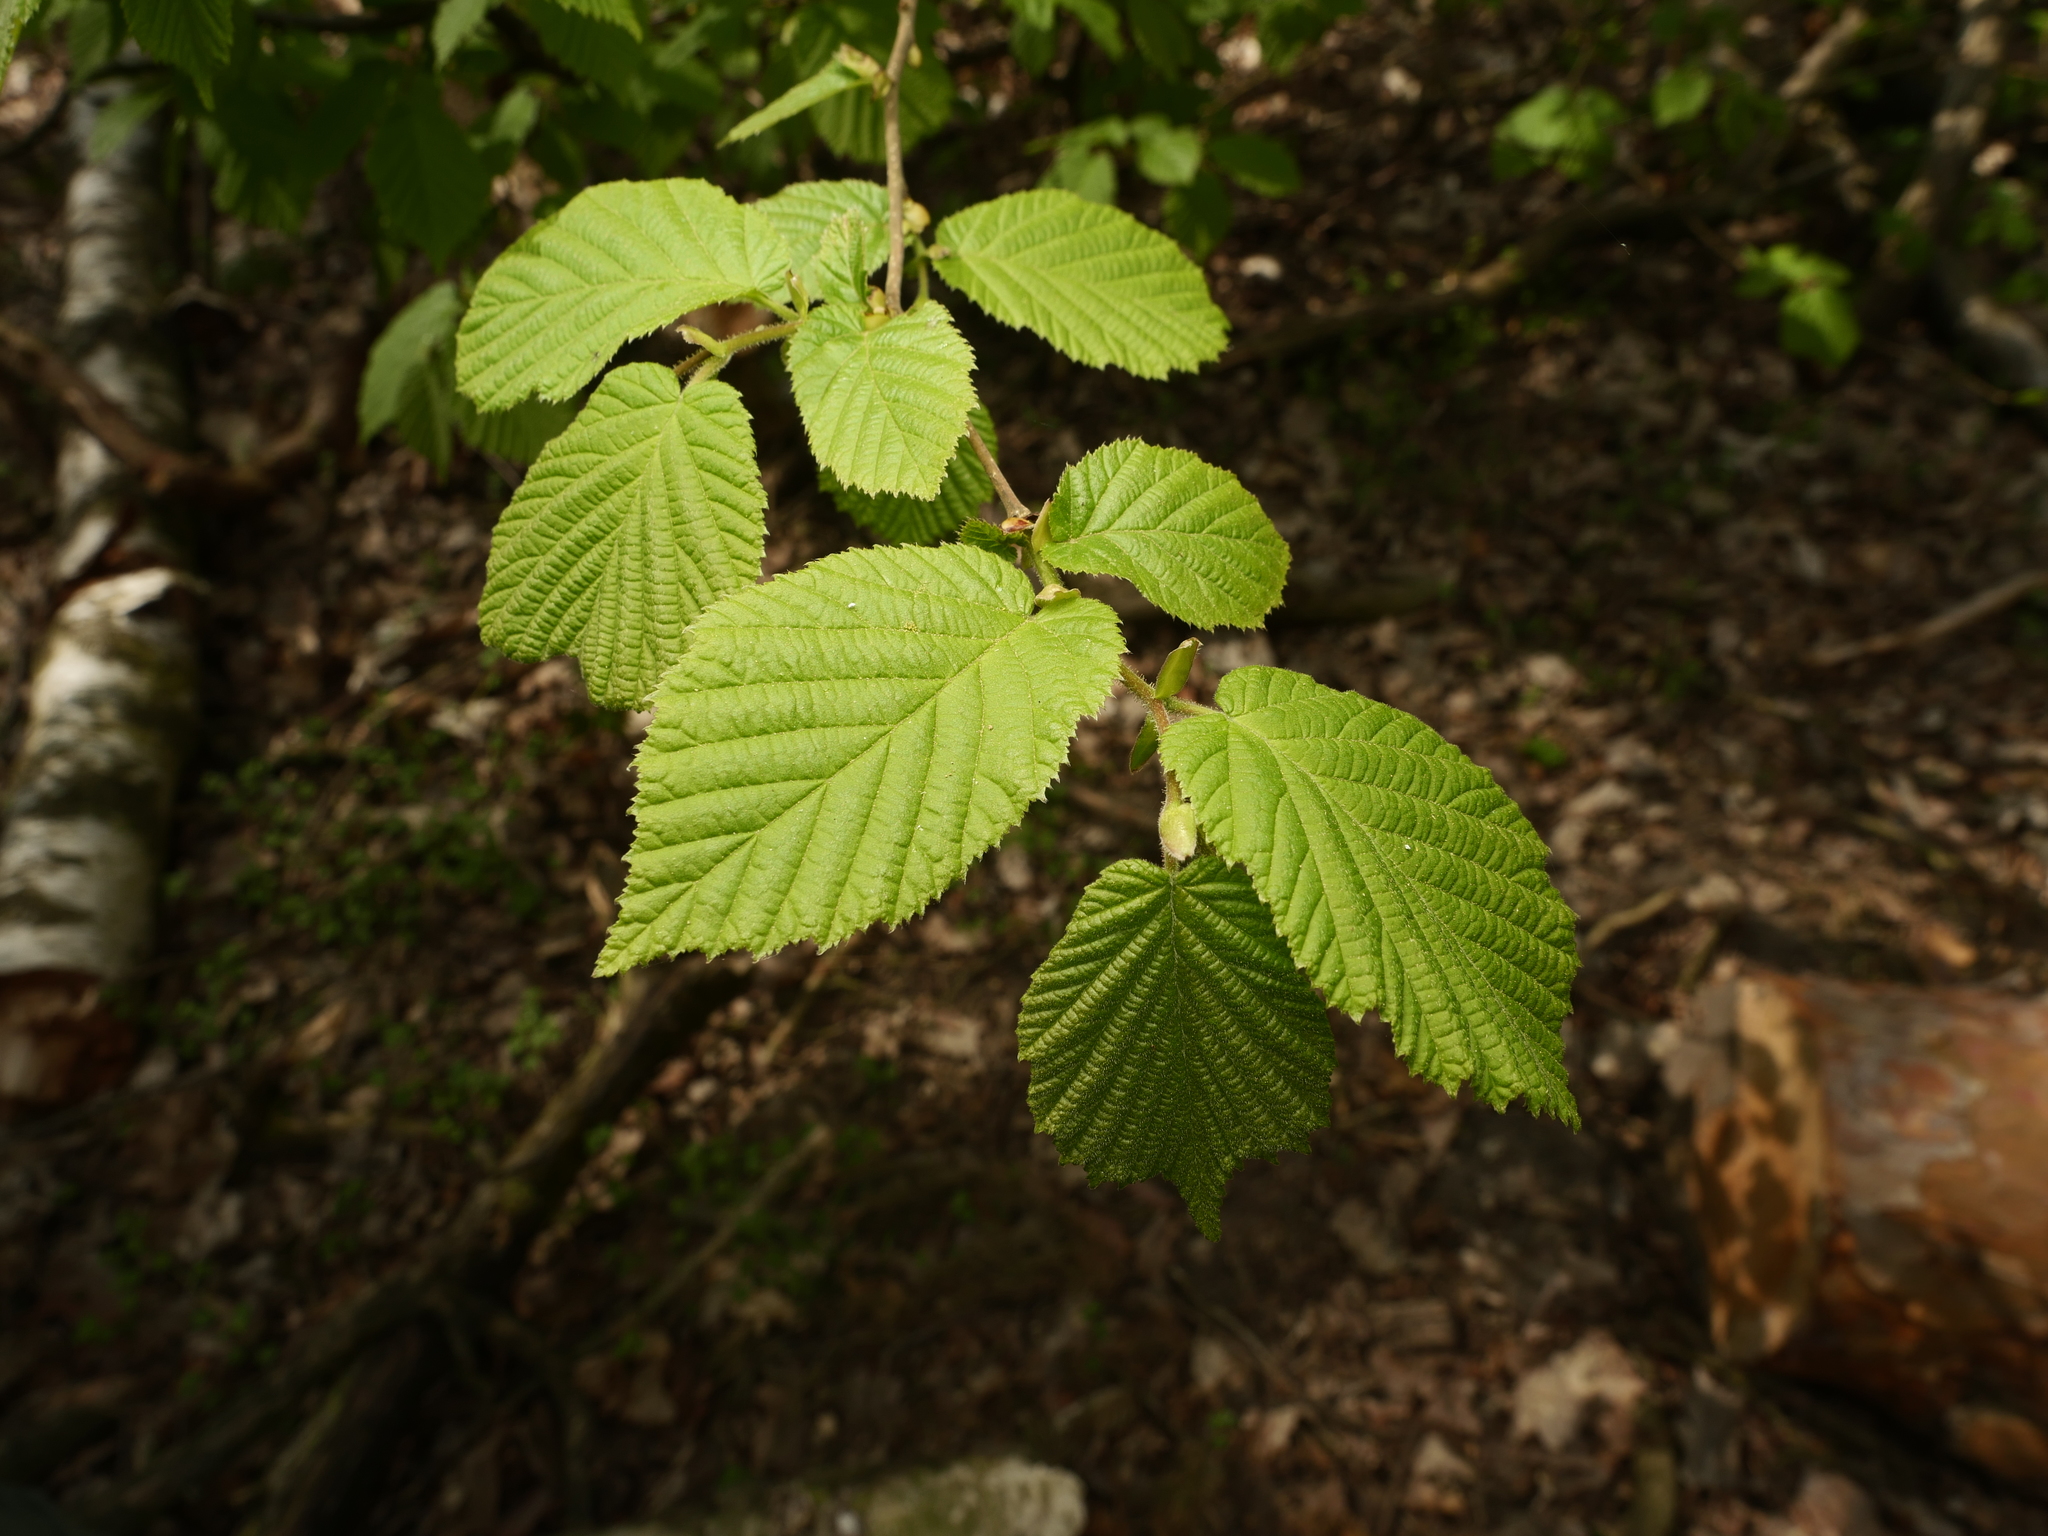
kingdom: Plantae
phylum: Tracheophyta
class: Magnoliopsida
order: Fagales
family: Betulaceae
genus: Corylus
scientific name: Corylus avellana
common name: European hazel
